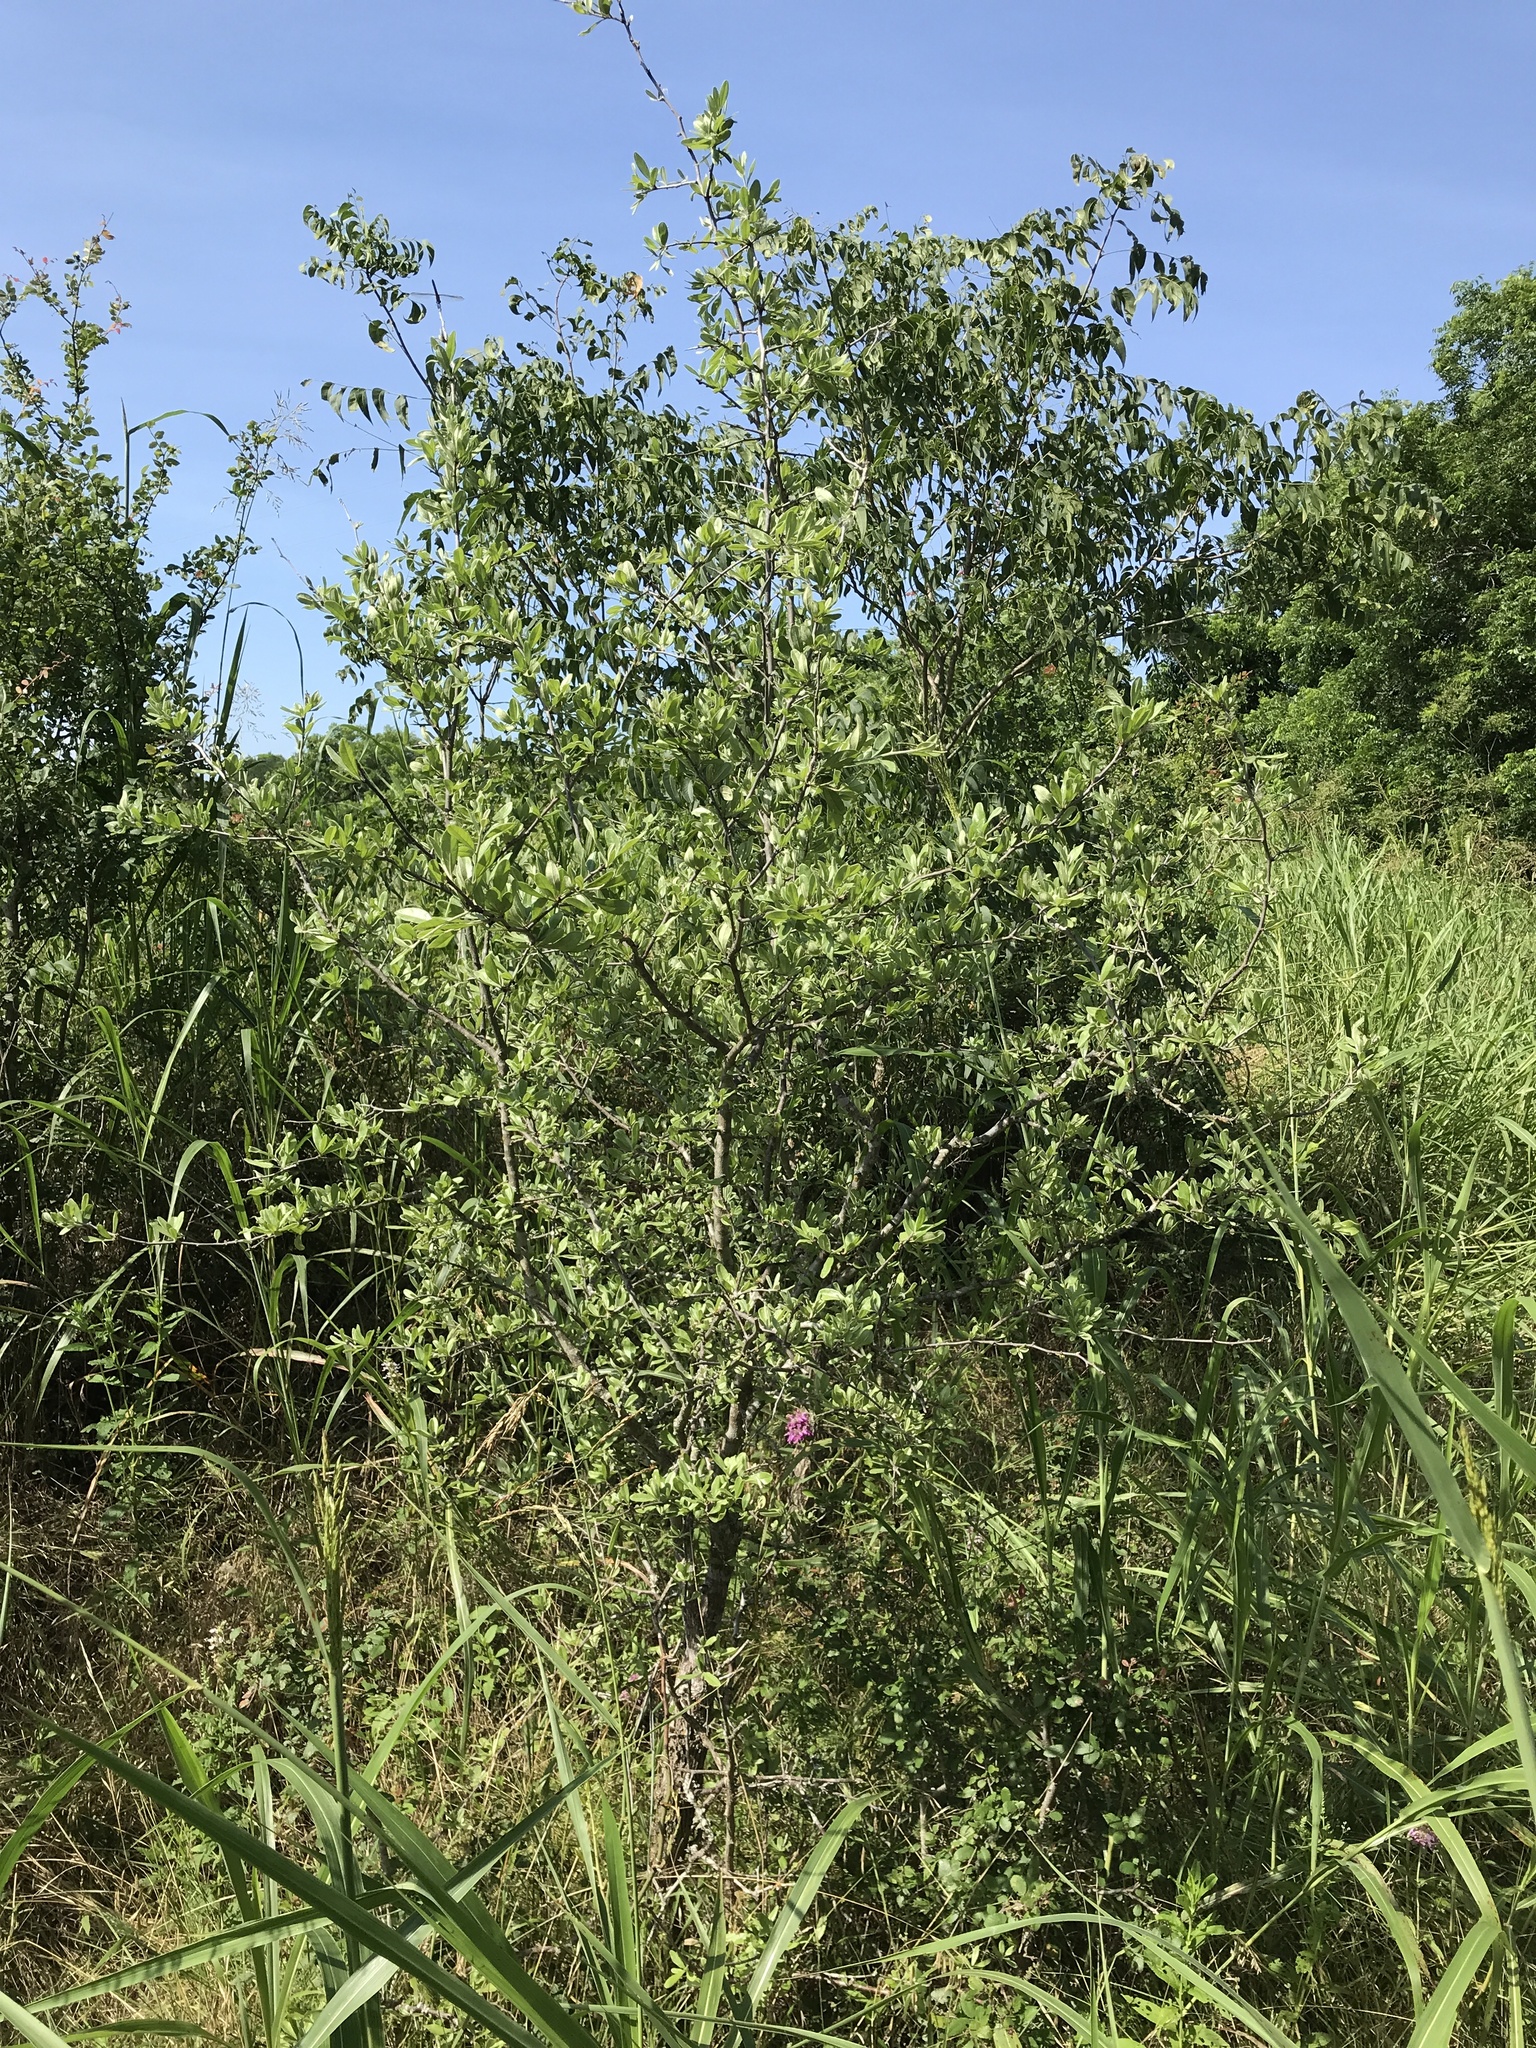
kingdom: Plantae
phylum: Tracheophyta
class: Magnoliopsida
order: Ericales
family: Sapotaceae
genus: Sideroxylon
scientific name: Sideroxylon lanuginosum
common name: Chittamwood
